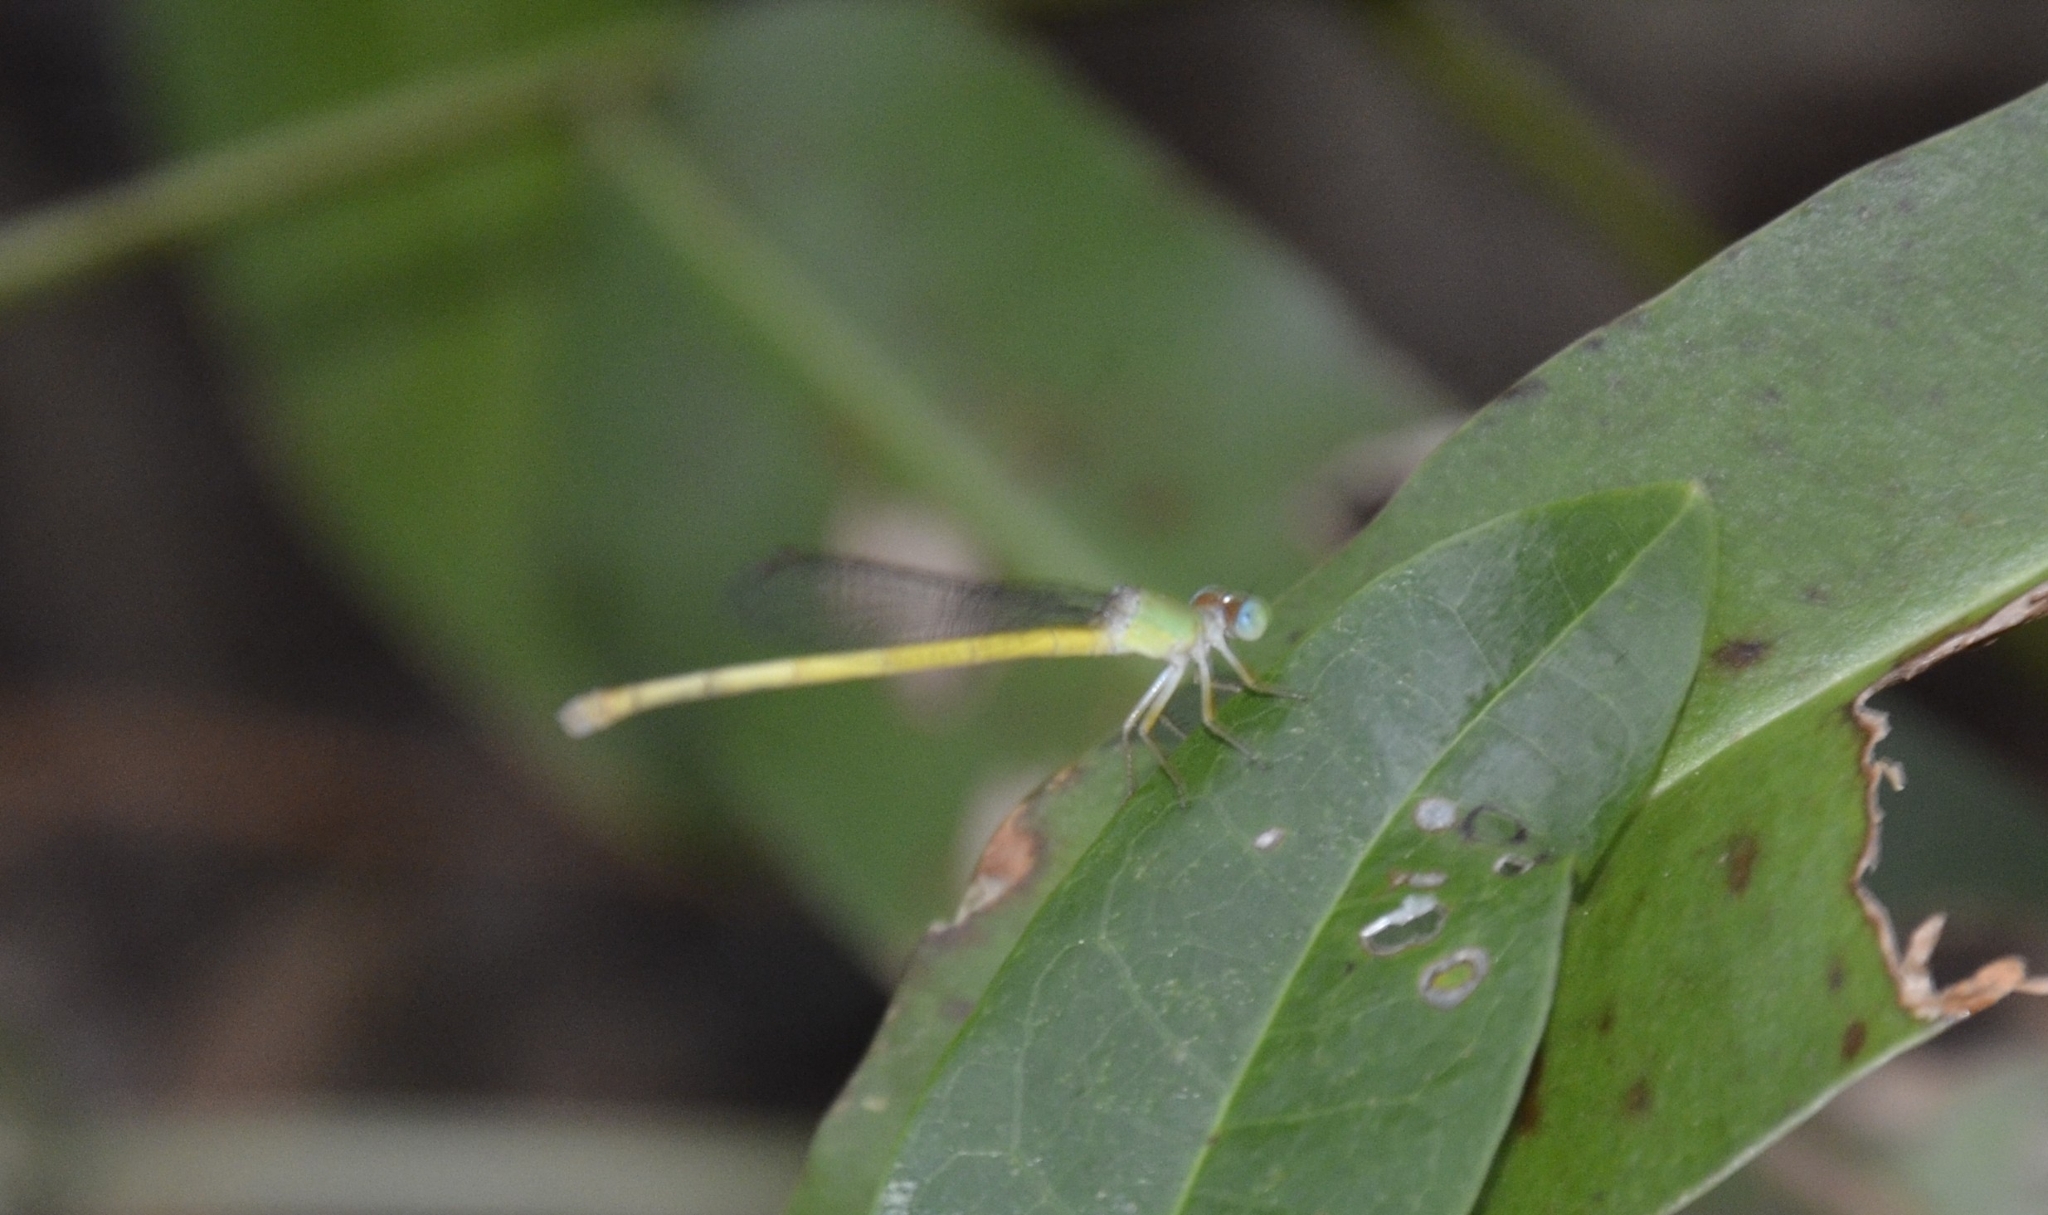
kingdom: Animalia
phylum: Arthropoda
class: Insecta
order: Odonata
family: Coenagrionidae
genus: Ceriagrion
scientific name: Ceriagrion coromandelianum
